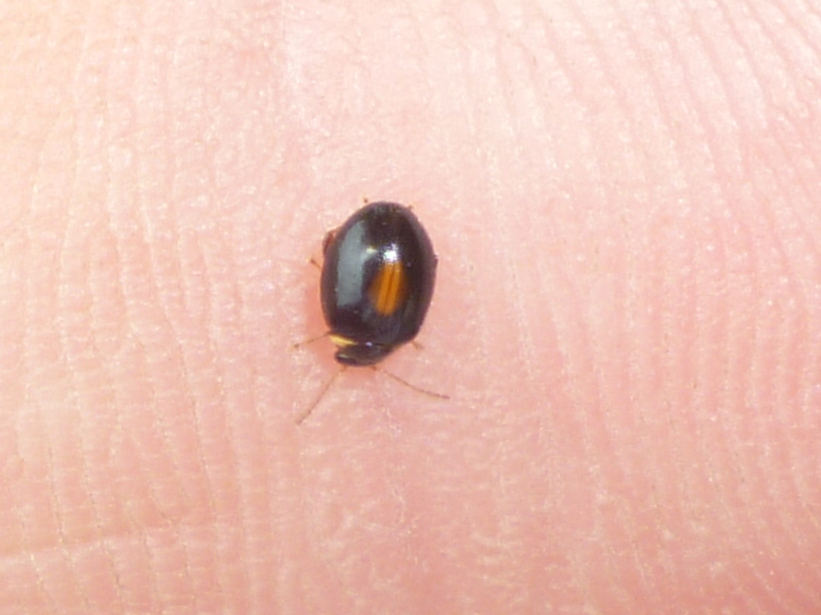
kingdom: Animalia
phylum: Arthropoda
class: Insecta
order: Coleoptera
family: Scirtidae
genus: Scirtes
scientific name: Scirtes orbiculatus
